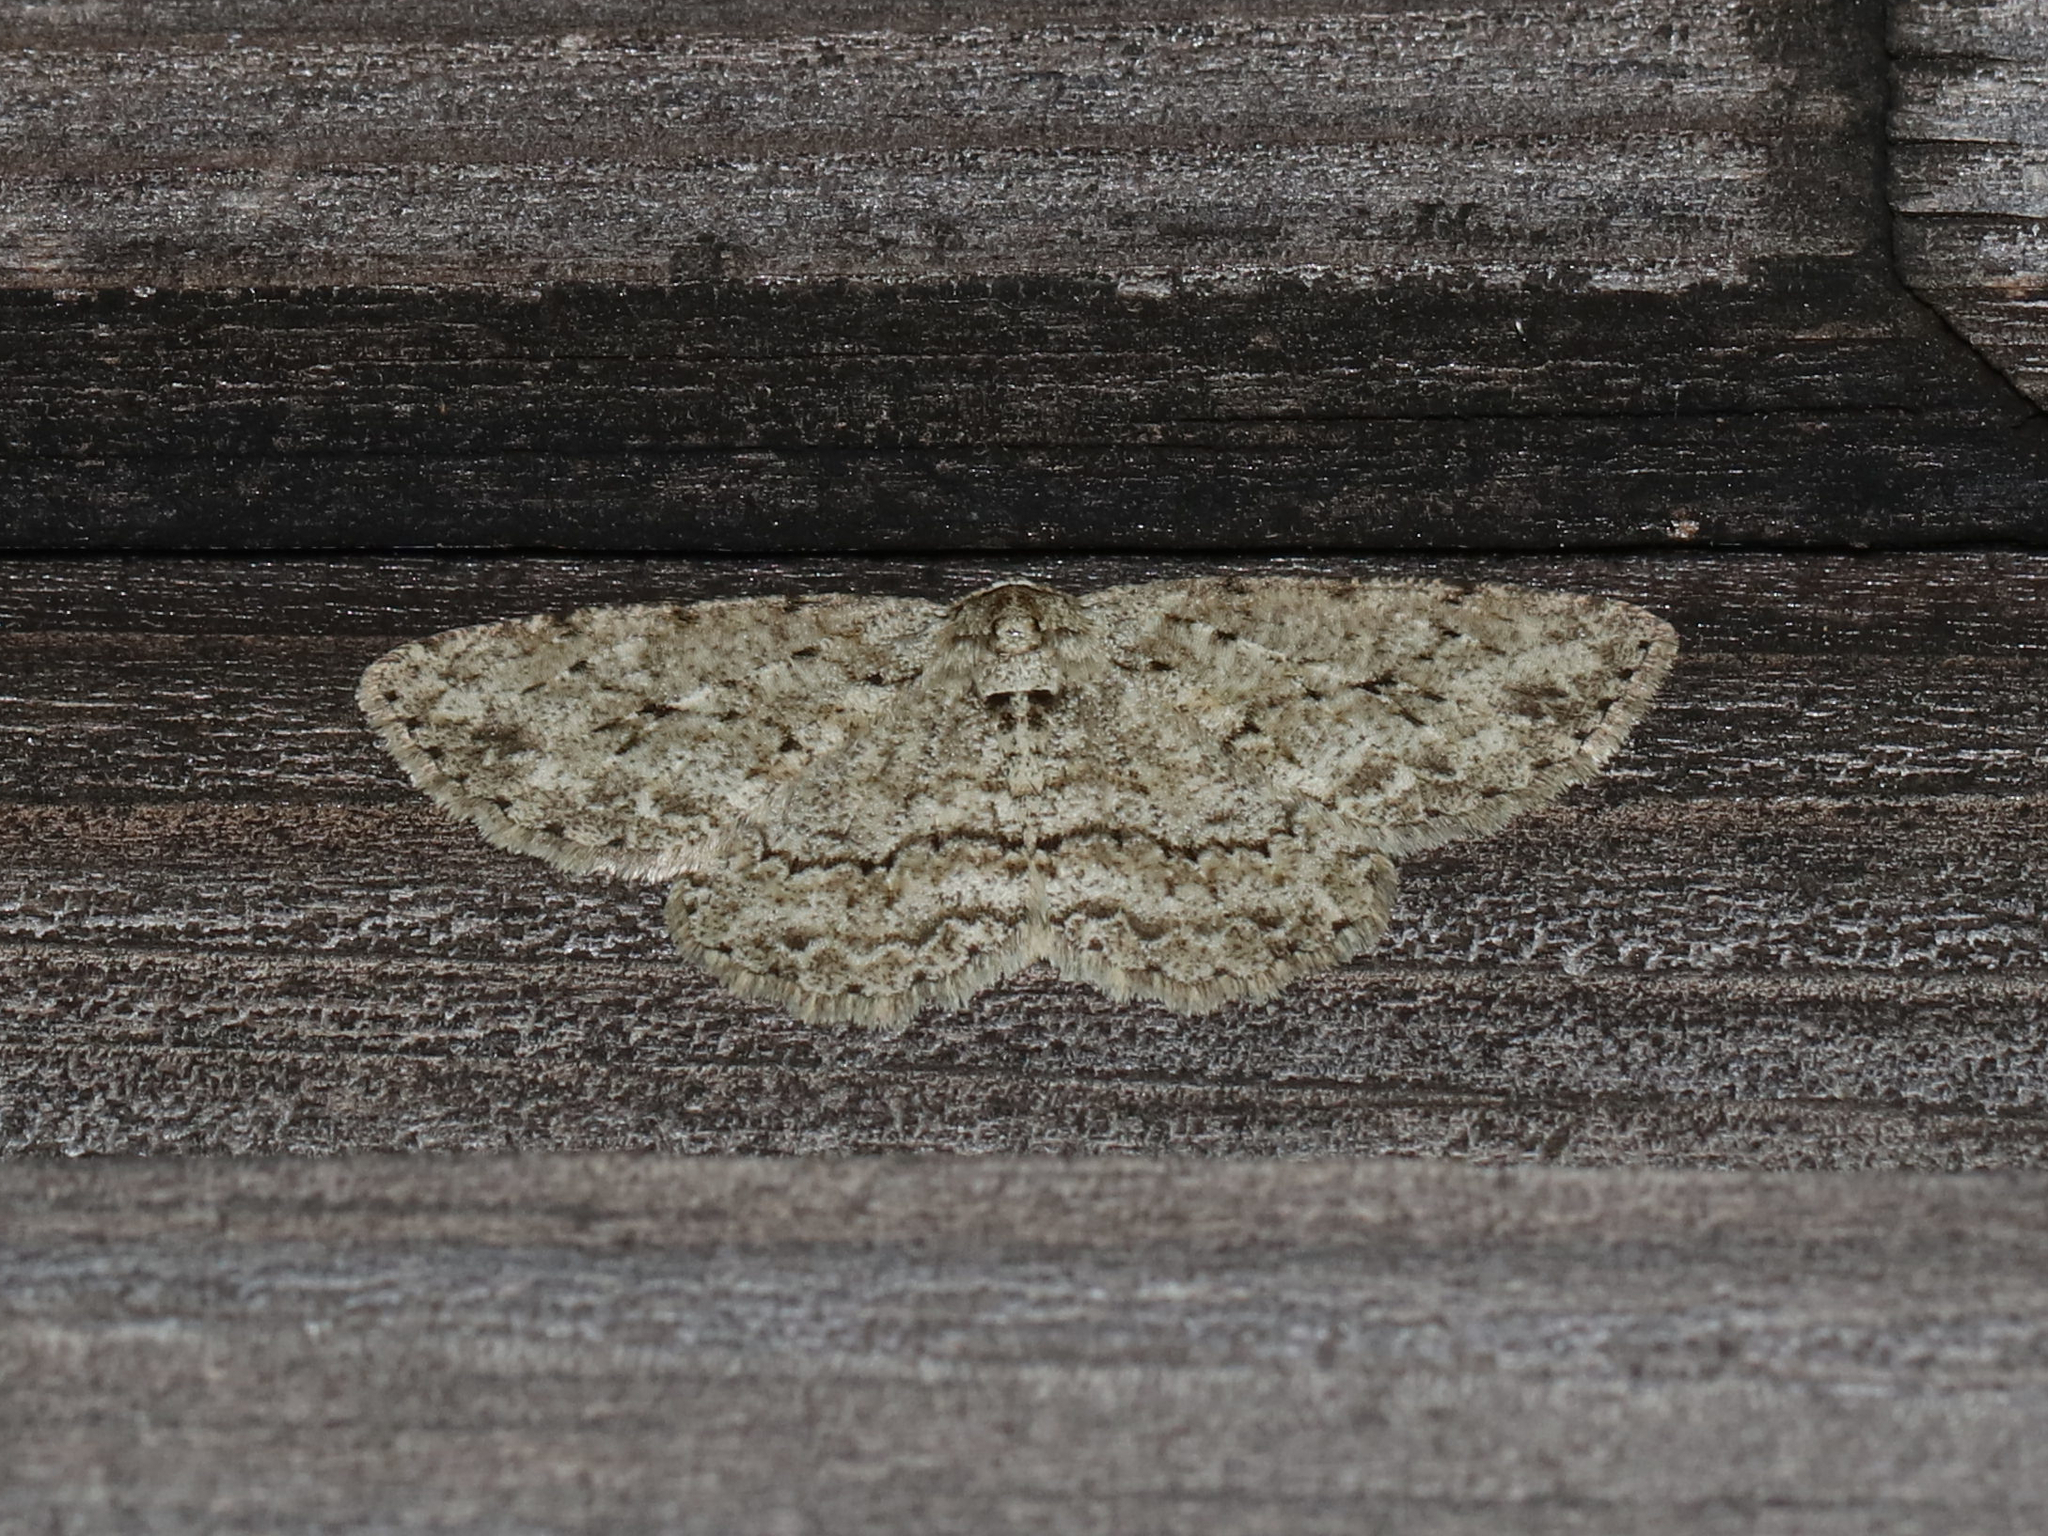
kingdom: Animalia
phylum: Arthropoda
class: Insecta
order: Lepidoptera
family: Geometridae
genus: Ectropis
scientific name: Ectropis crepuscularia
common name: Engrailed
